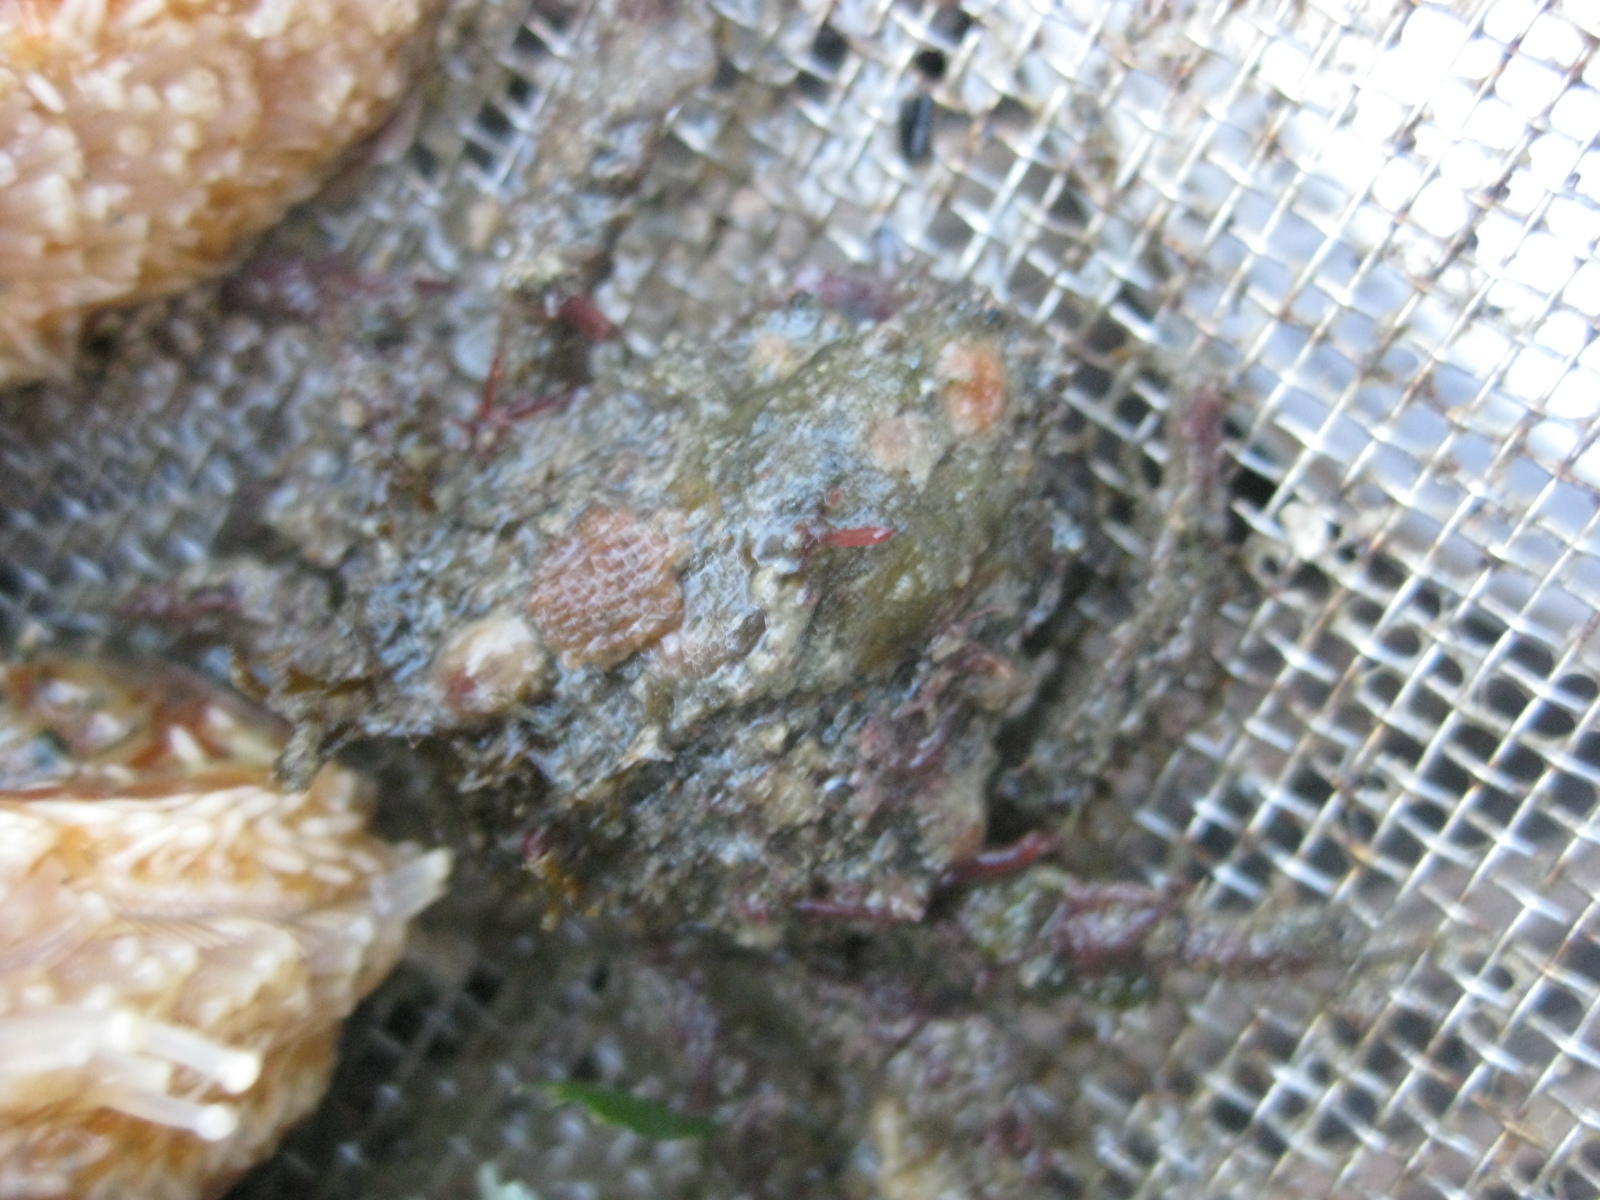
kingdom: Animalia
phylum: Arthropoda
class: Malacostraca
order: Decapoda
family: Majidae
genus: Notomithrax
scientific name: Notomithrax minor
